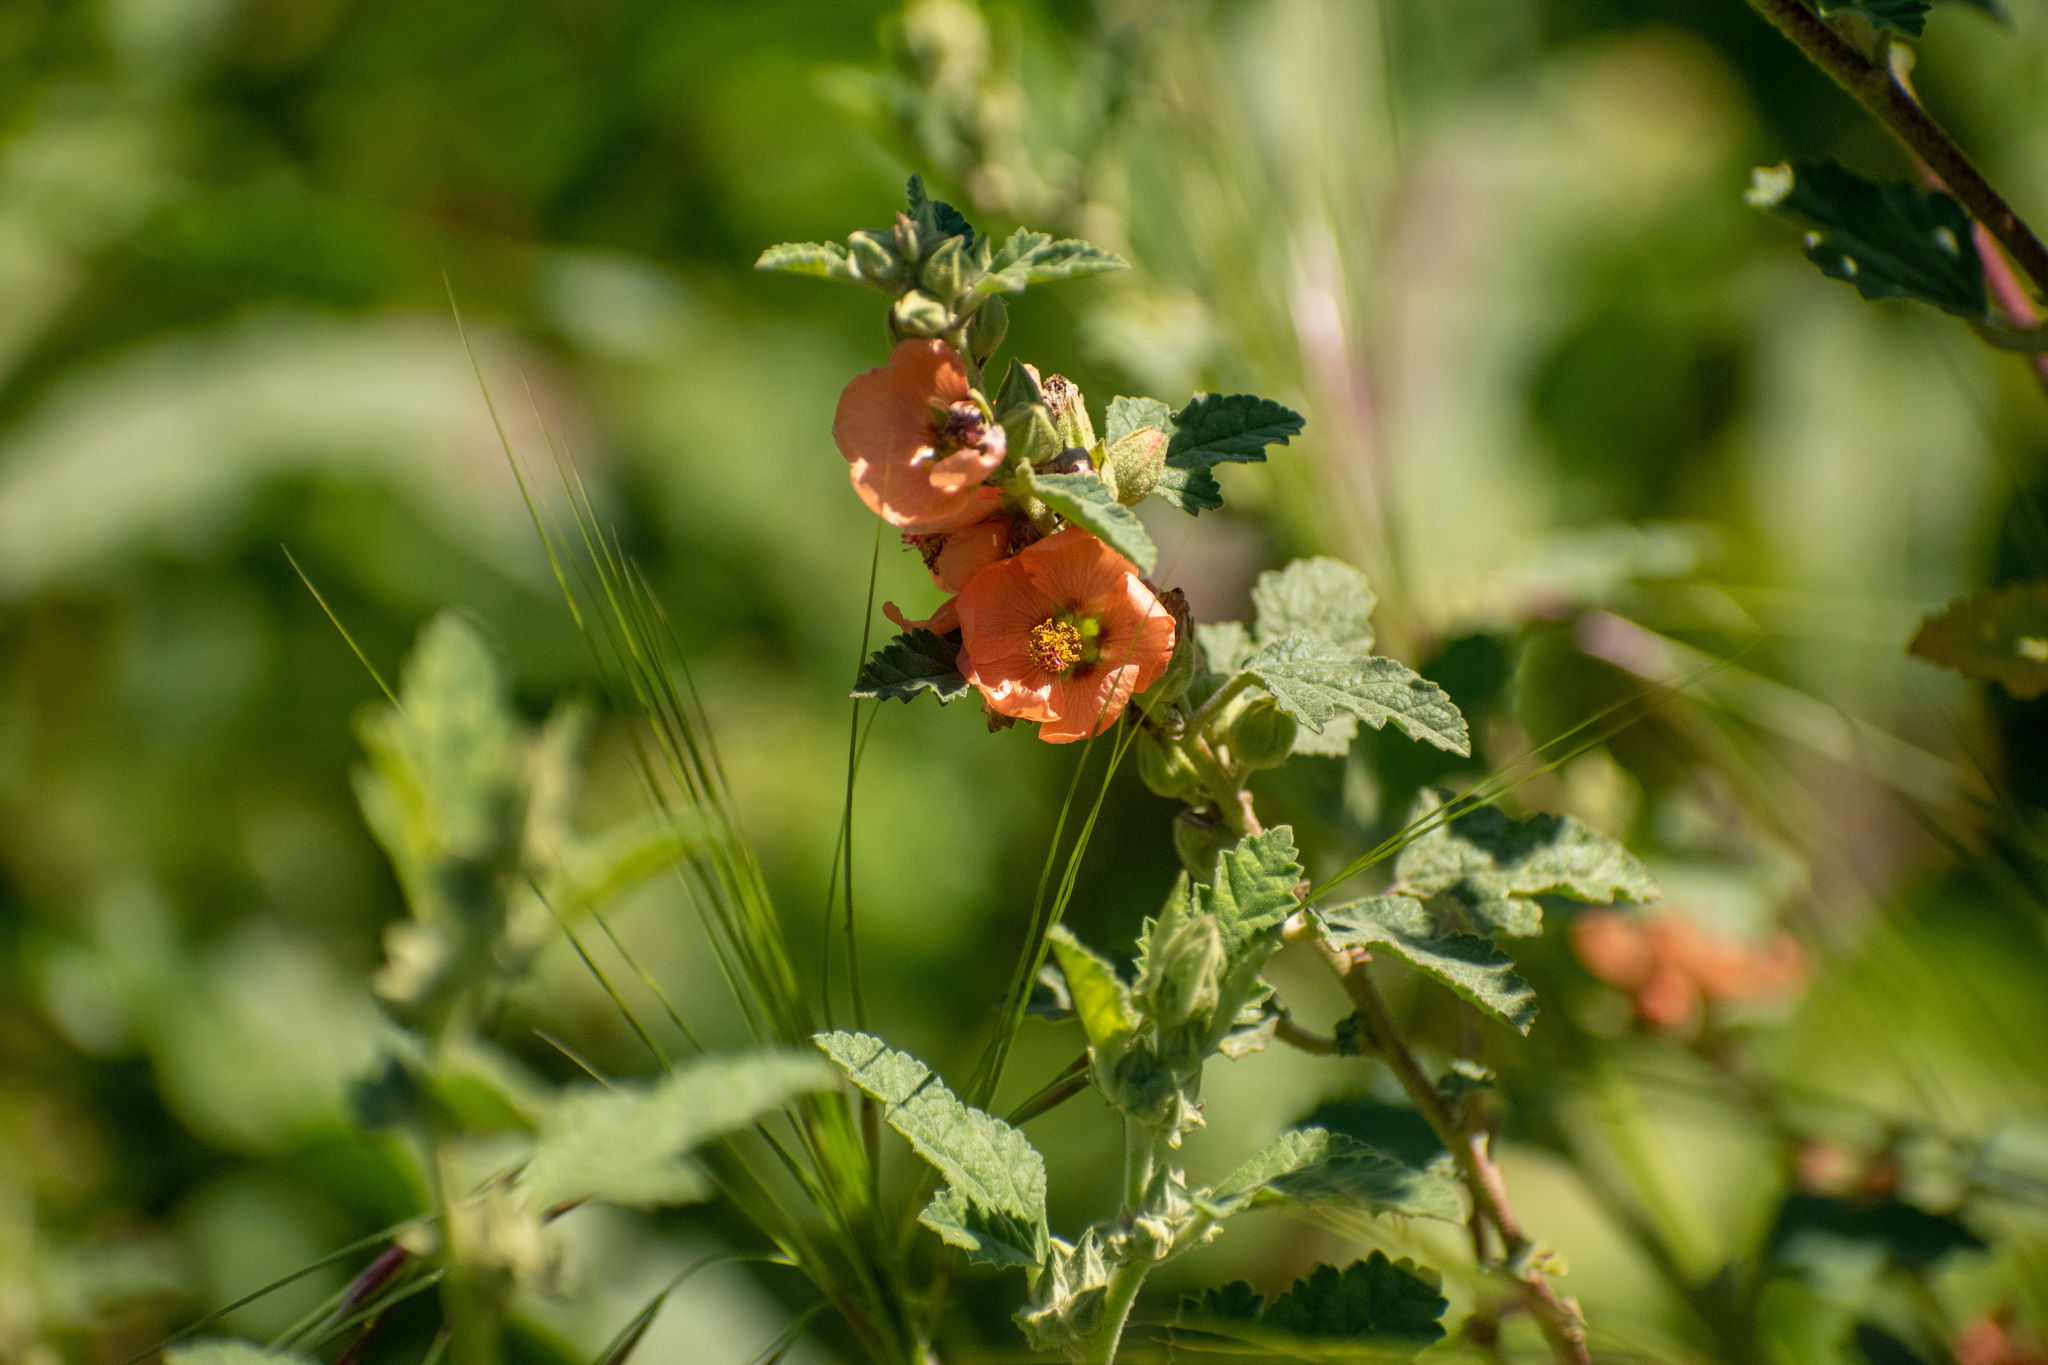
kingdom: Plantae
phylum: Tracheophyta
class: Magnoliopsida
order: Malvales
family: Malvaceae
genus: Sphaeralcea
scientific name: Sphaeralcea bonariensis
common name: Latin globemallow
